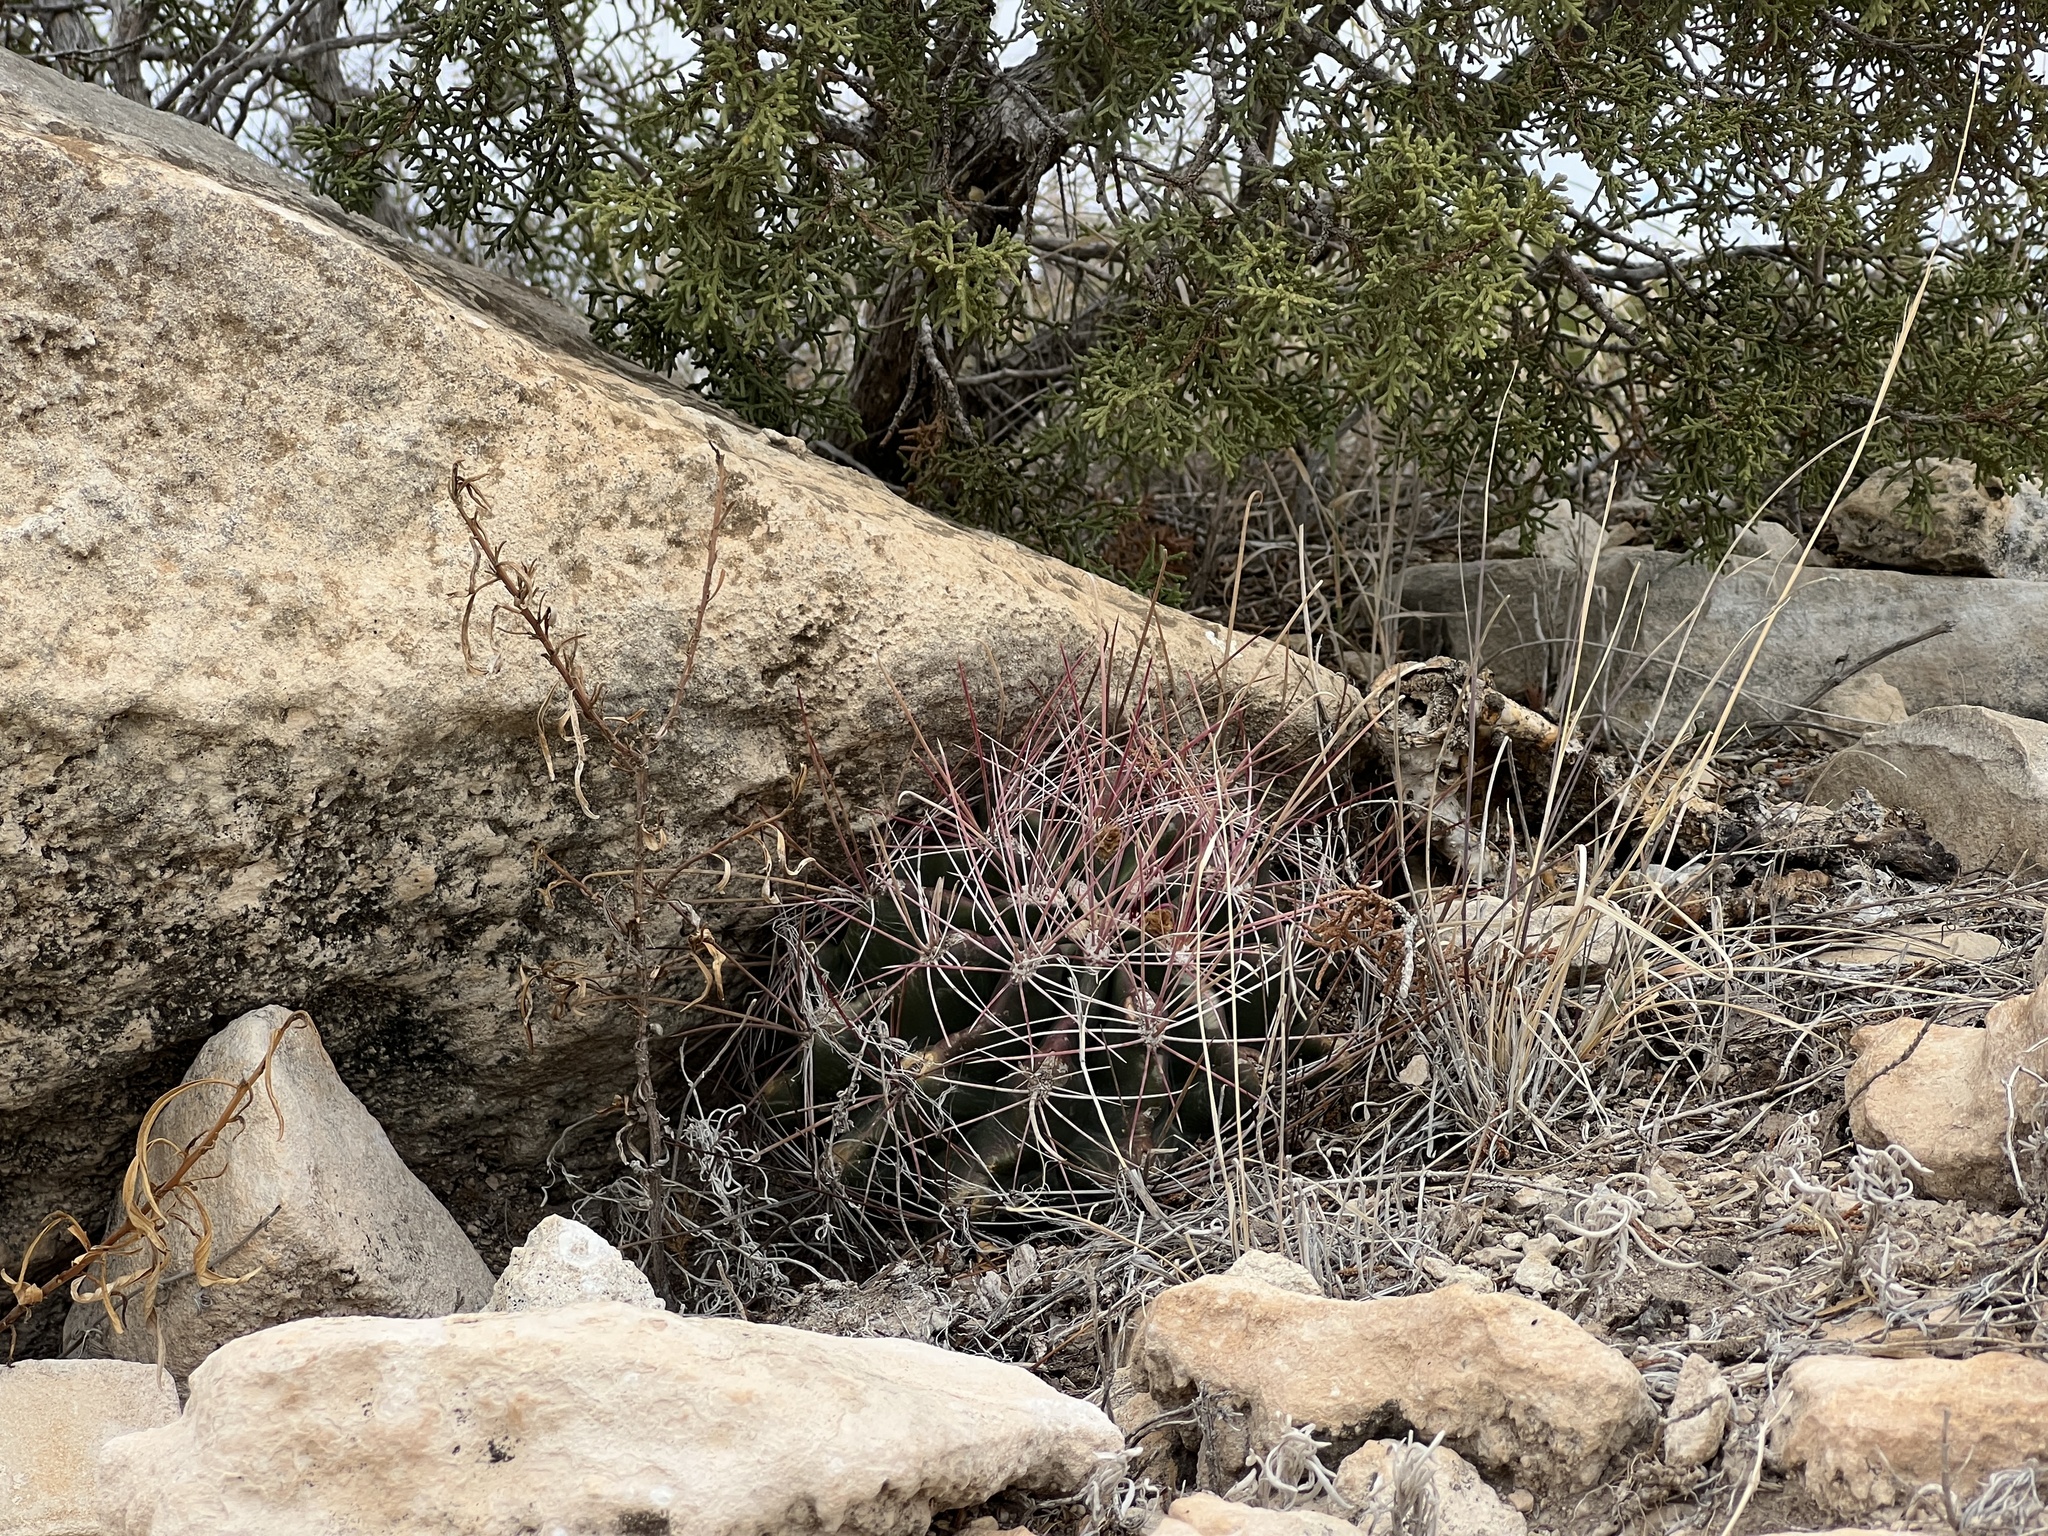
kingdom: Plantae
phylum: Tracheophyta
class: Magnoliopsida
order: Caryophyllales
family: Cactaceae
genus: Bisnaga
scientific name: Bisnaga hamatacantha
